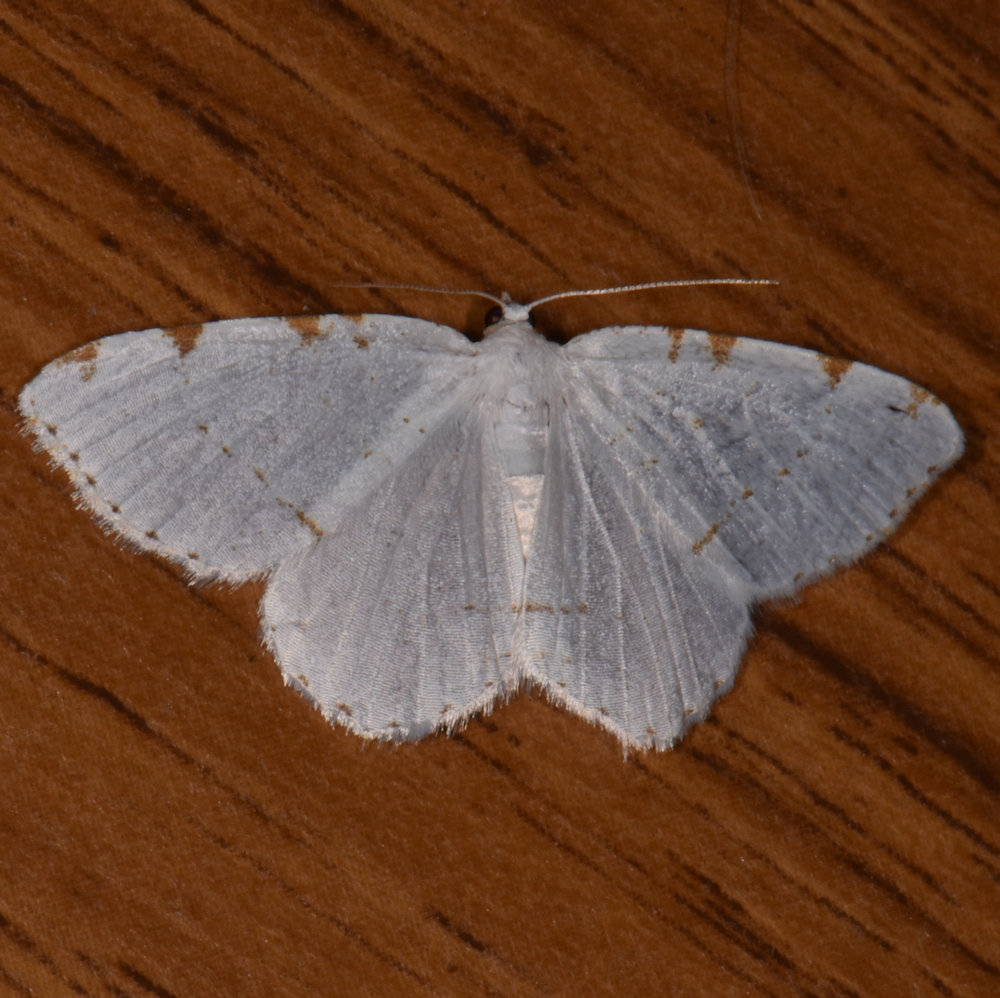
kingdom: Animalia
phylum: Arthropoda
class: Insecta
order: Lepidoptera
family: Geometridae
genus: Macaria
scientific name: Macaria pustularia
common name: Lesser maple spanworm moth
